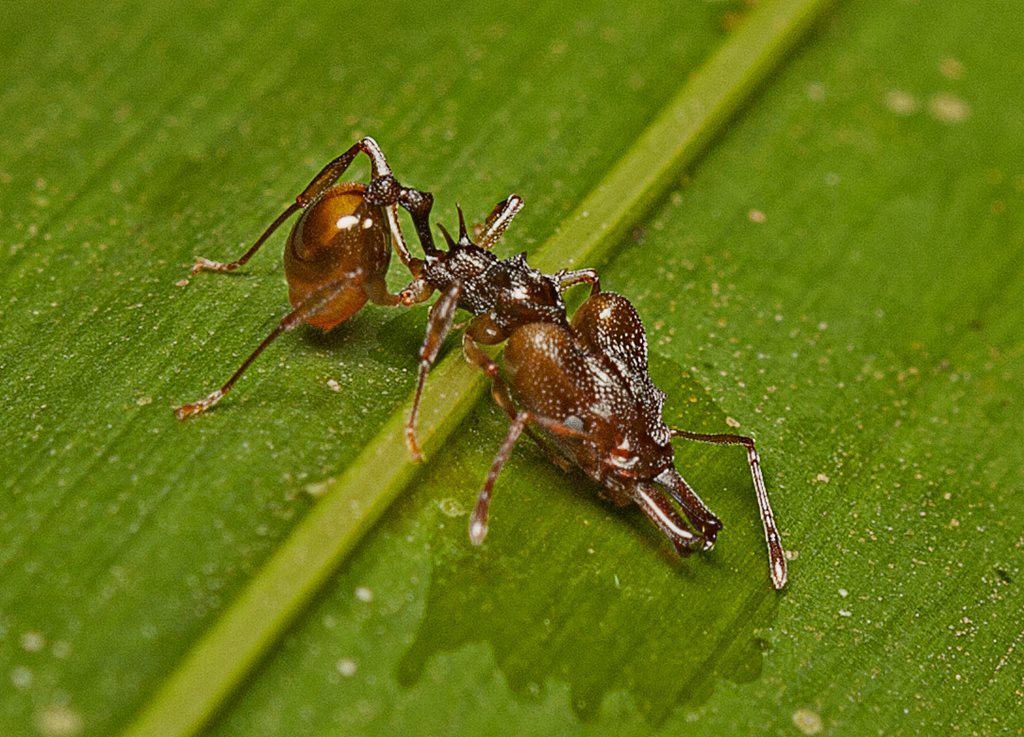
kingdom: Animalia
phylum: Arthropoda
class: Insecta
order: Hymenoptera
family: Formicidae
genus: Orectognathus
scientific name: Orectognathus versicolor
